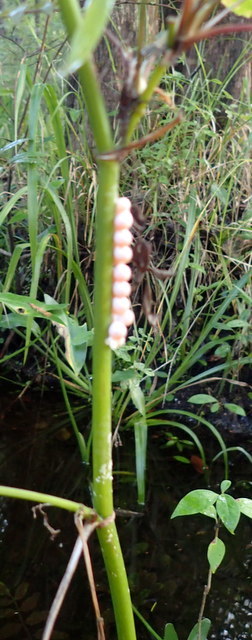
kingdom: Animalia
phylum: Mollusca
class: Gastropoda
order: Architaenioglossa
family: Ampullariidae
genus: Pomacea
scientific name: Pomacea paludosa
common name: Florida applesnail
